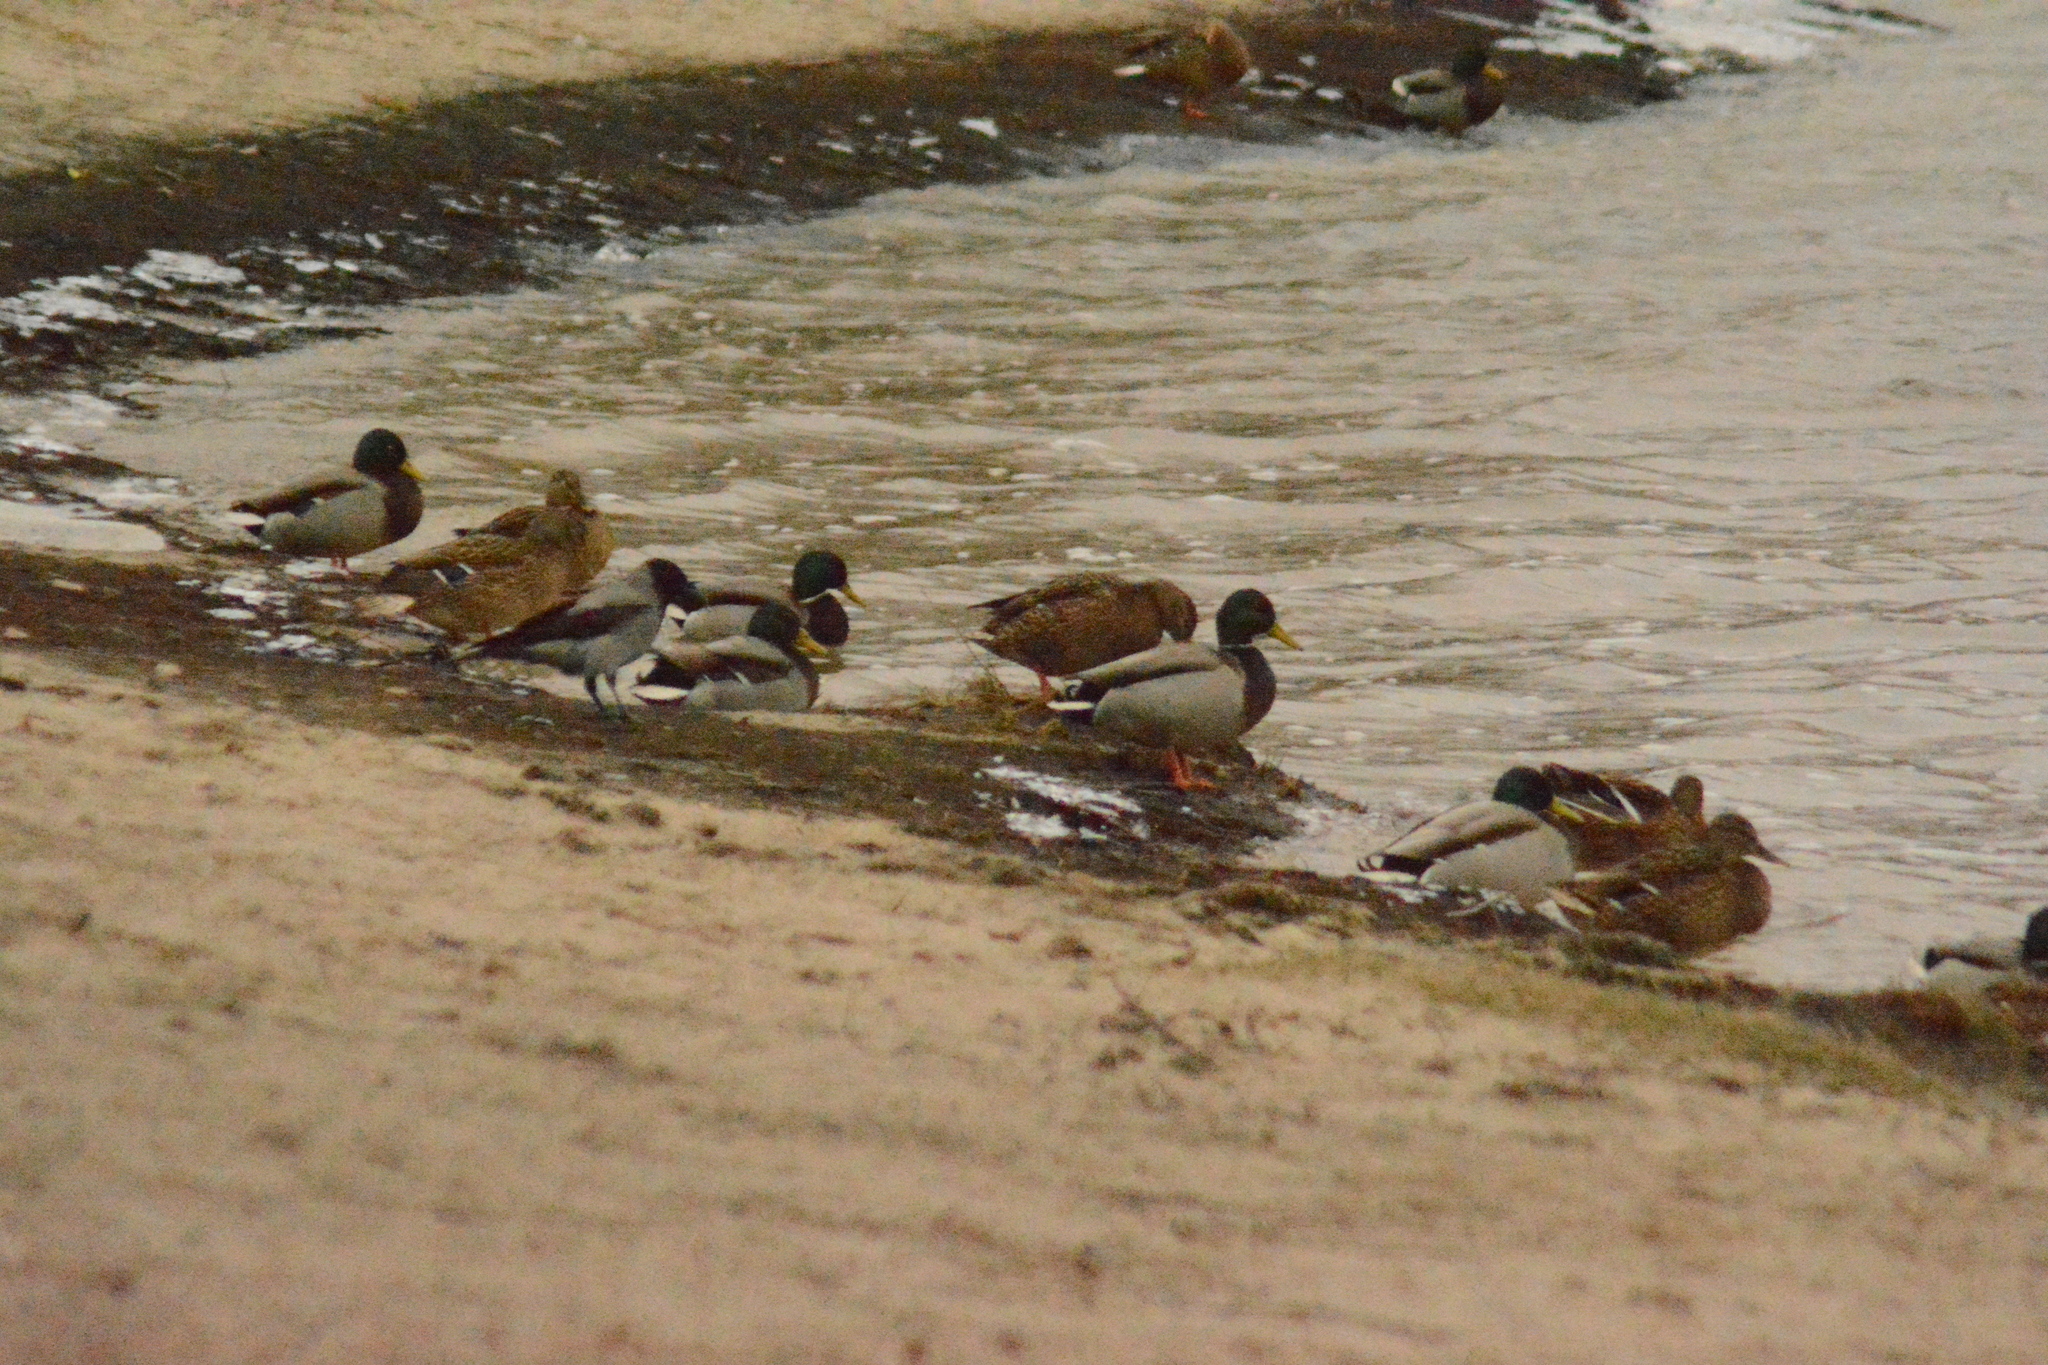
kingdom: Animalia
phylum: Chordata
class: Aves
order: Anseriformes
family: Anatidae
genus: Anas
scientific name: Anas platyrhynchos
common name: Mallard
